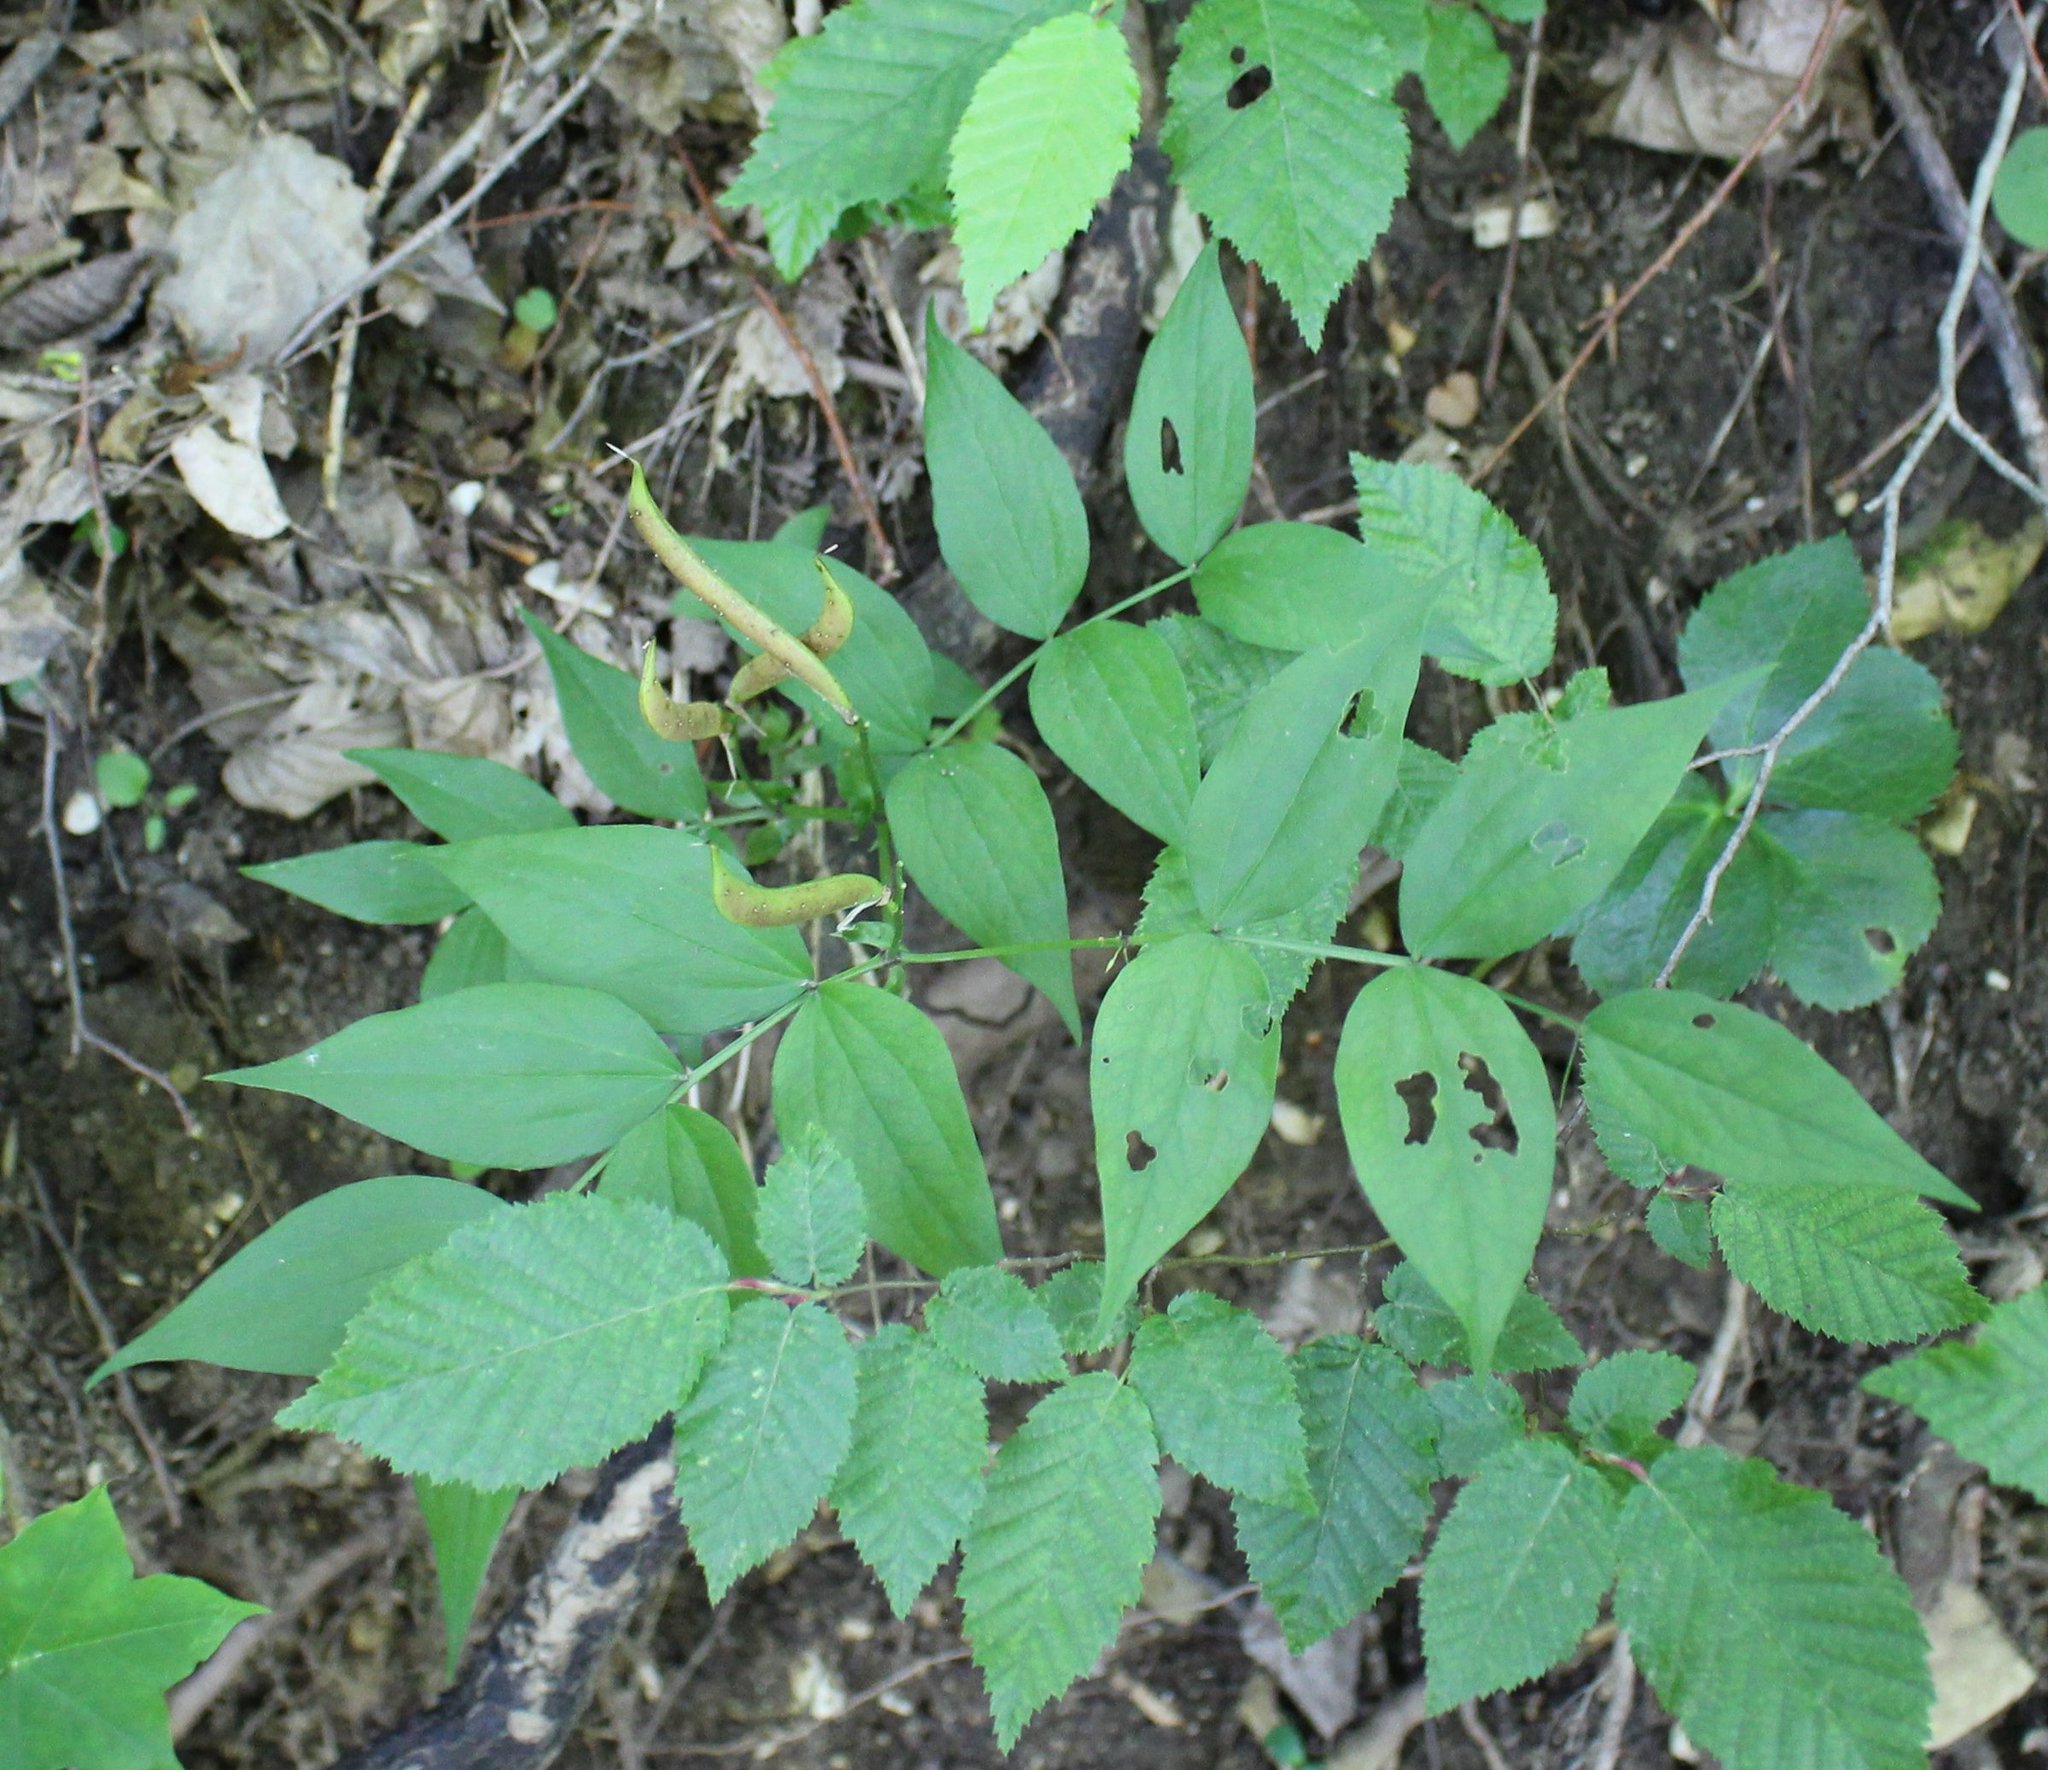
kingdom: Plantae
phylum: Tracheophyta
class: Magnoliopsida
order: Fabales
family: Fabaceae
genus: Lathyrus
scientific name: Lathyrus vernus
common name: Spring pea
